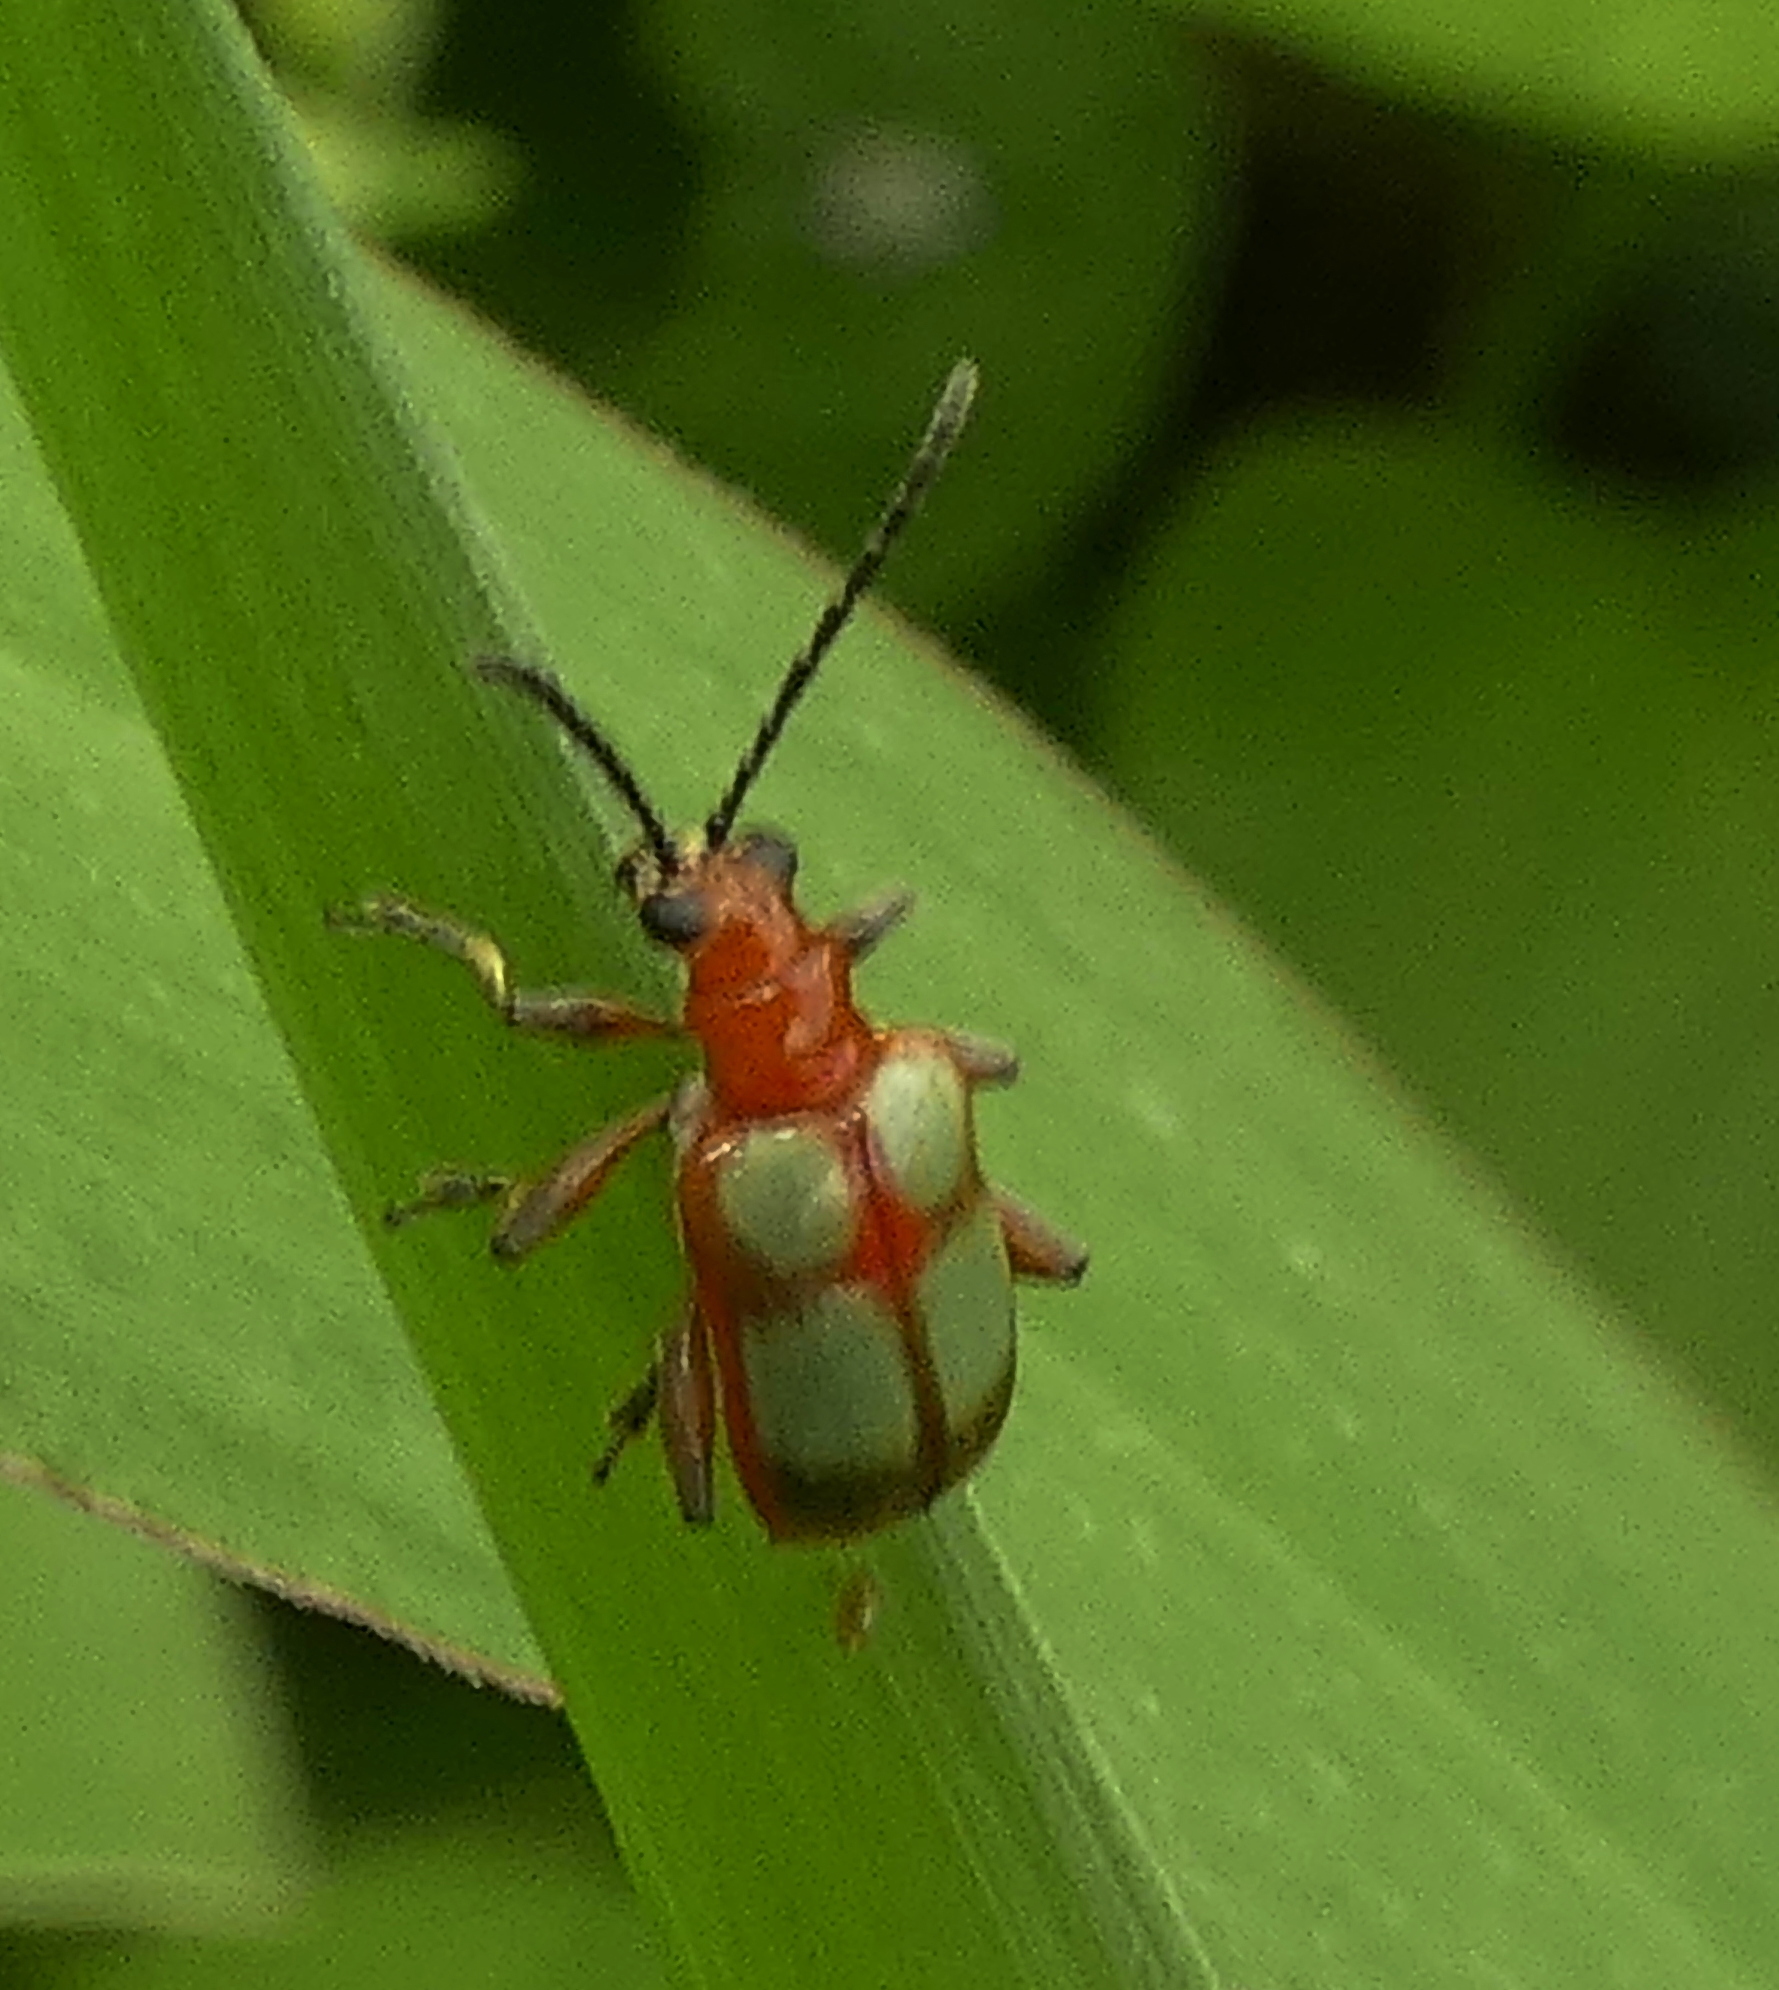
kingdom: Animalia
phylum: Arthropoda
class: Insecta
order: Coleoptera
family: Chrysomelidae
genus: Neolema
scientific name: Neolema
